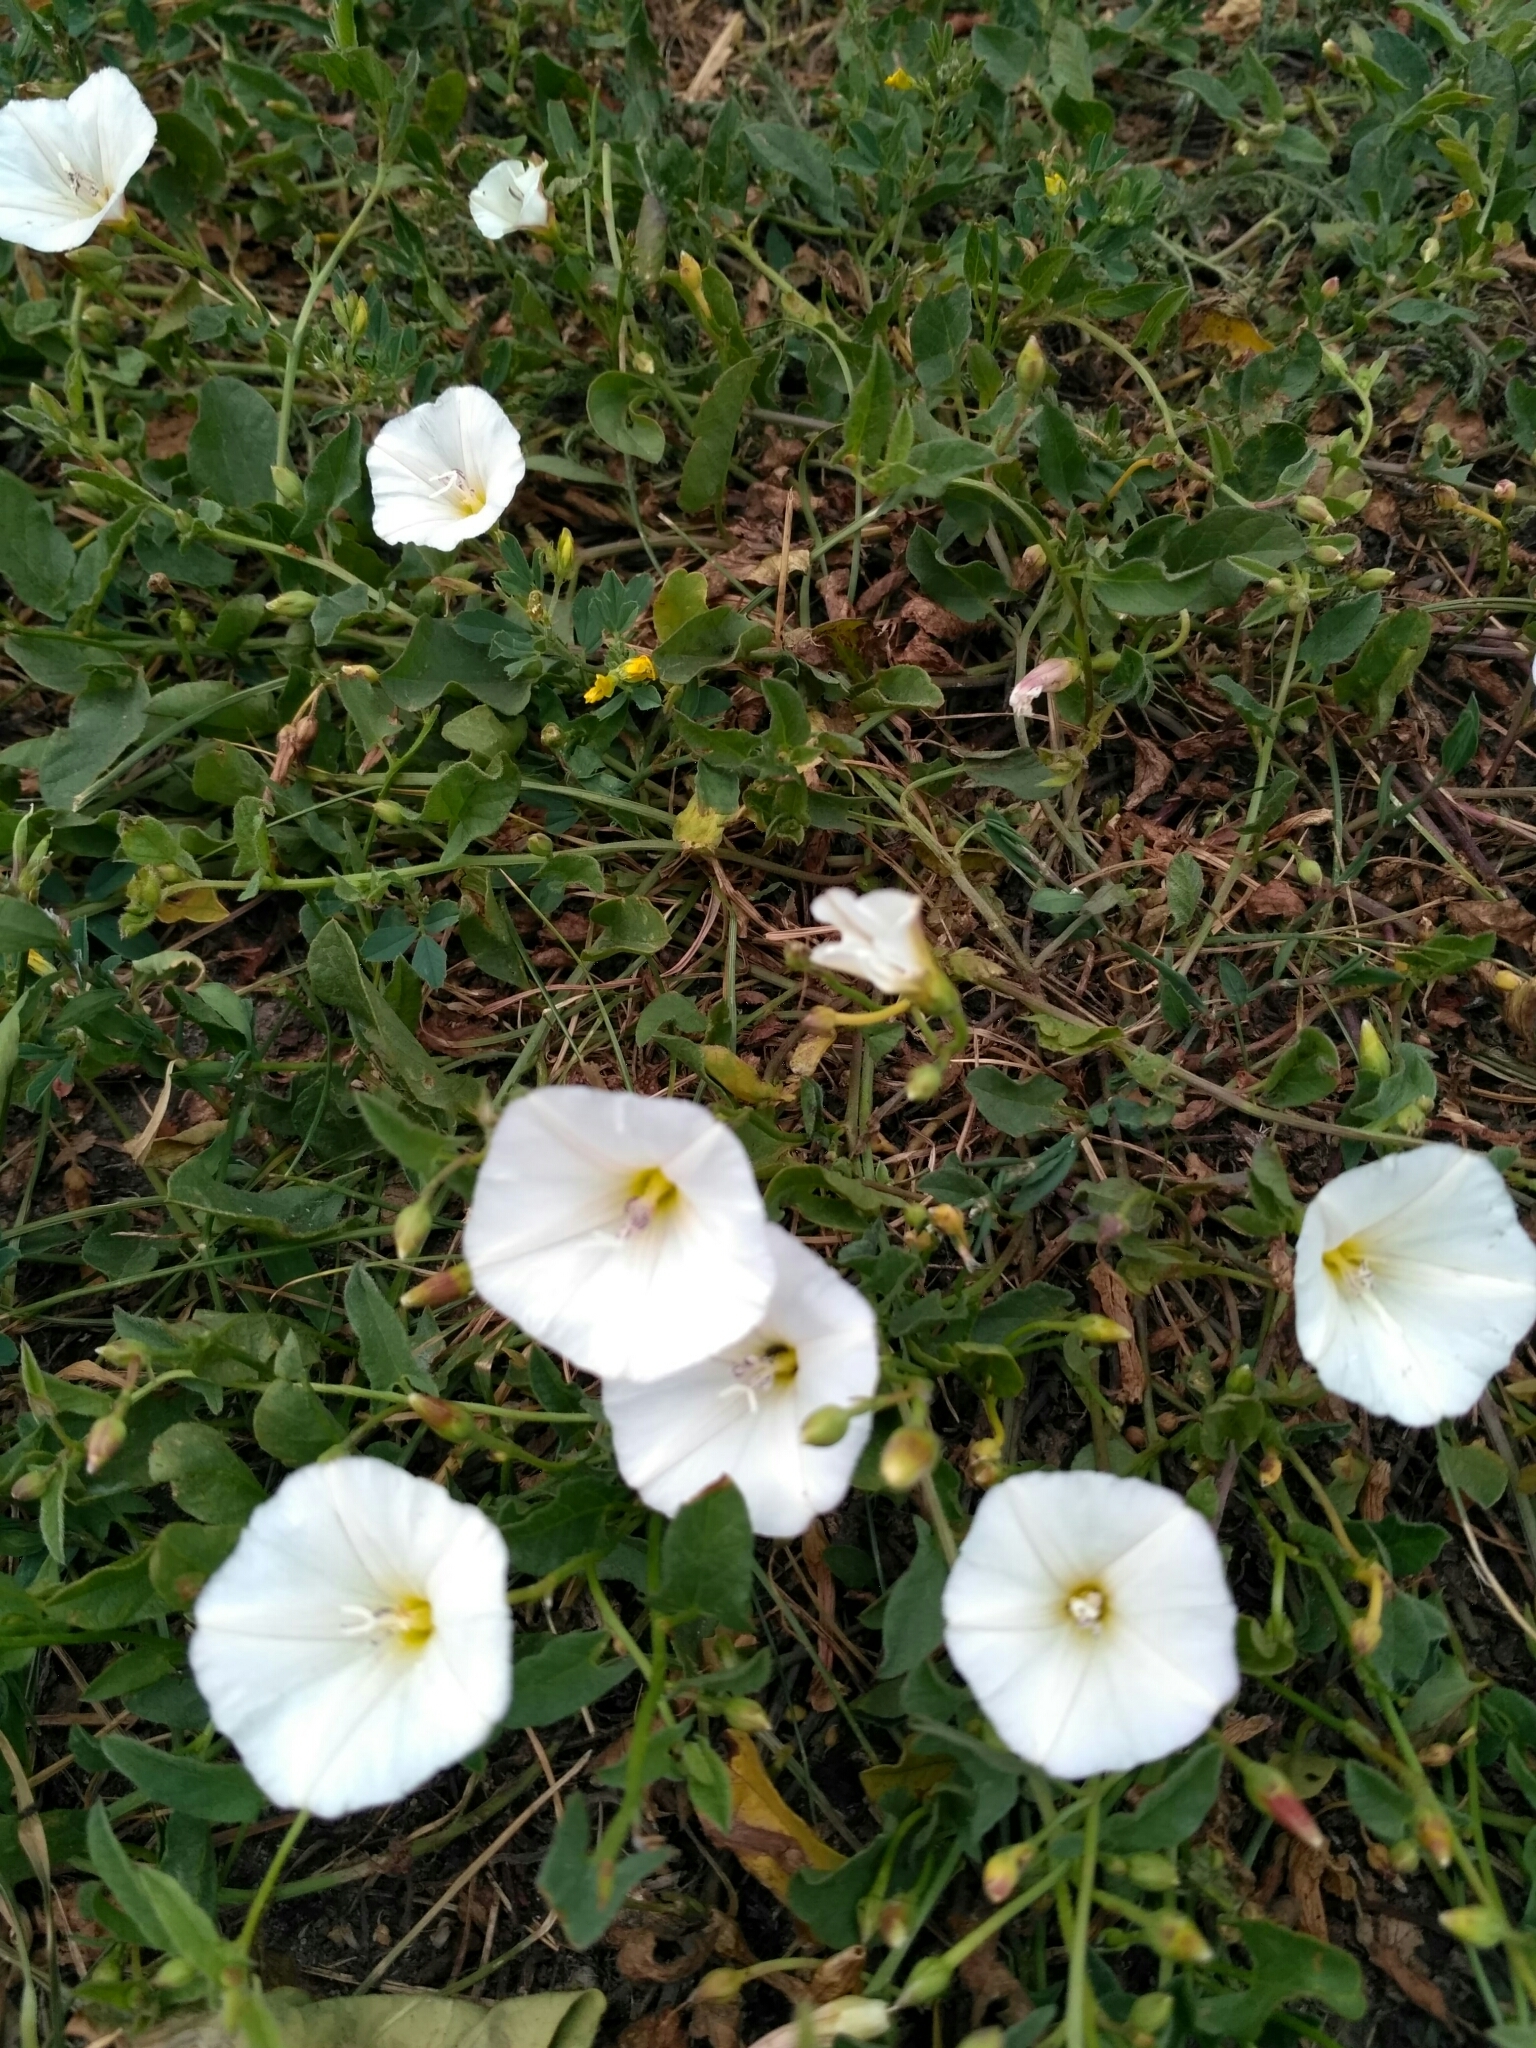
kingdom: Plantae
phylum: Tracheophyta
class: Magnoliopsida
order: Solanales
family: Convolvulaceae
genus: Convolvulus
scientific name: Convolvulus arvensis
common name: Field bindweed
